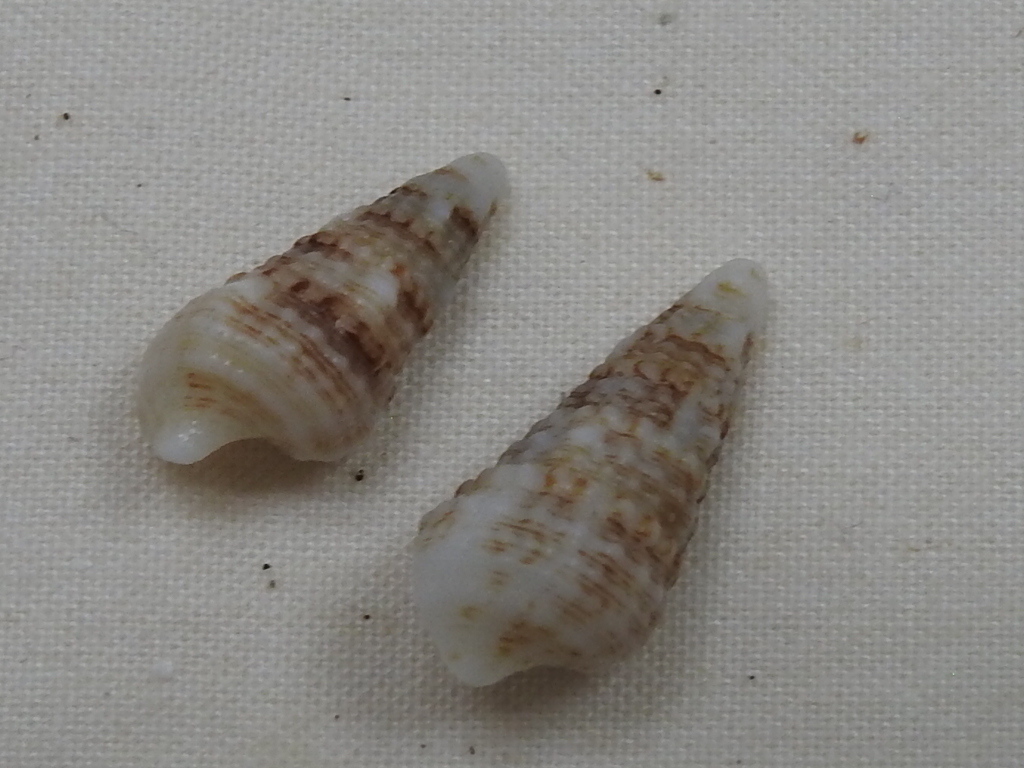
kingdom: Animalia
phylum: Mollusca
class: Gastropoda
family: Cerithiidae
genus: Cerithium
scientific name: Cerithium atratum
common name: Dark cerith
